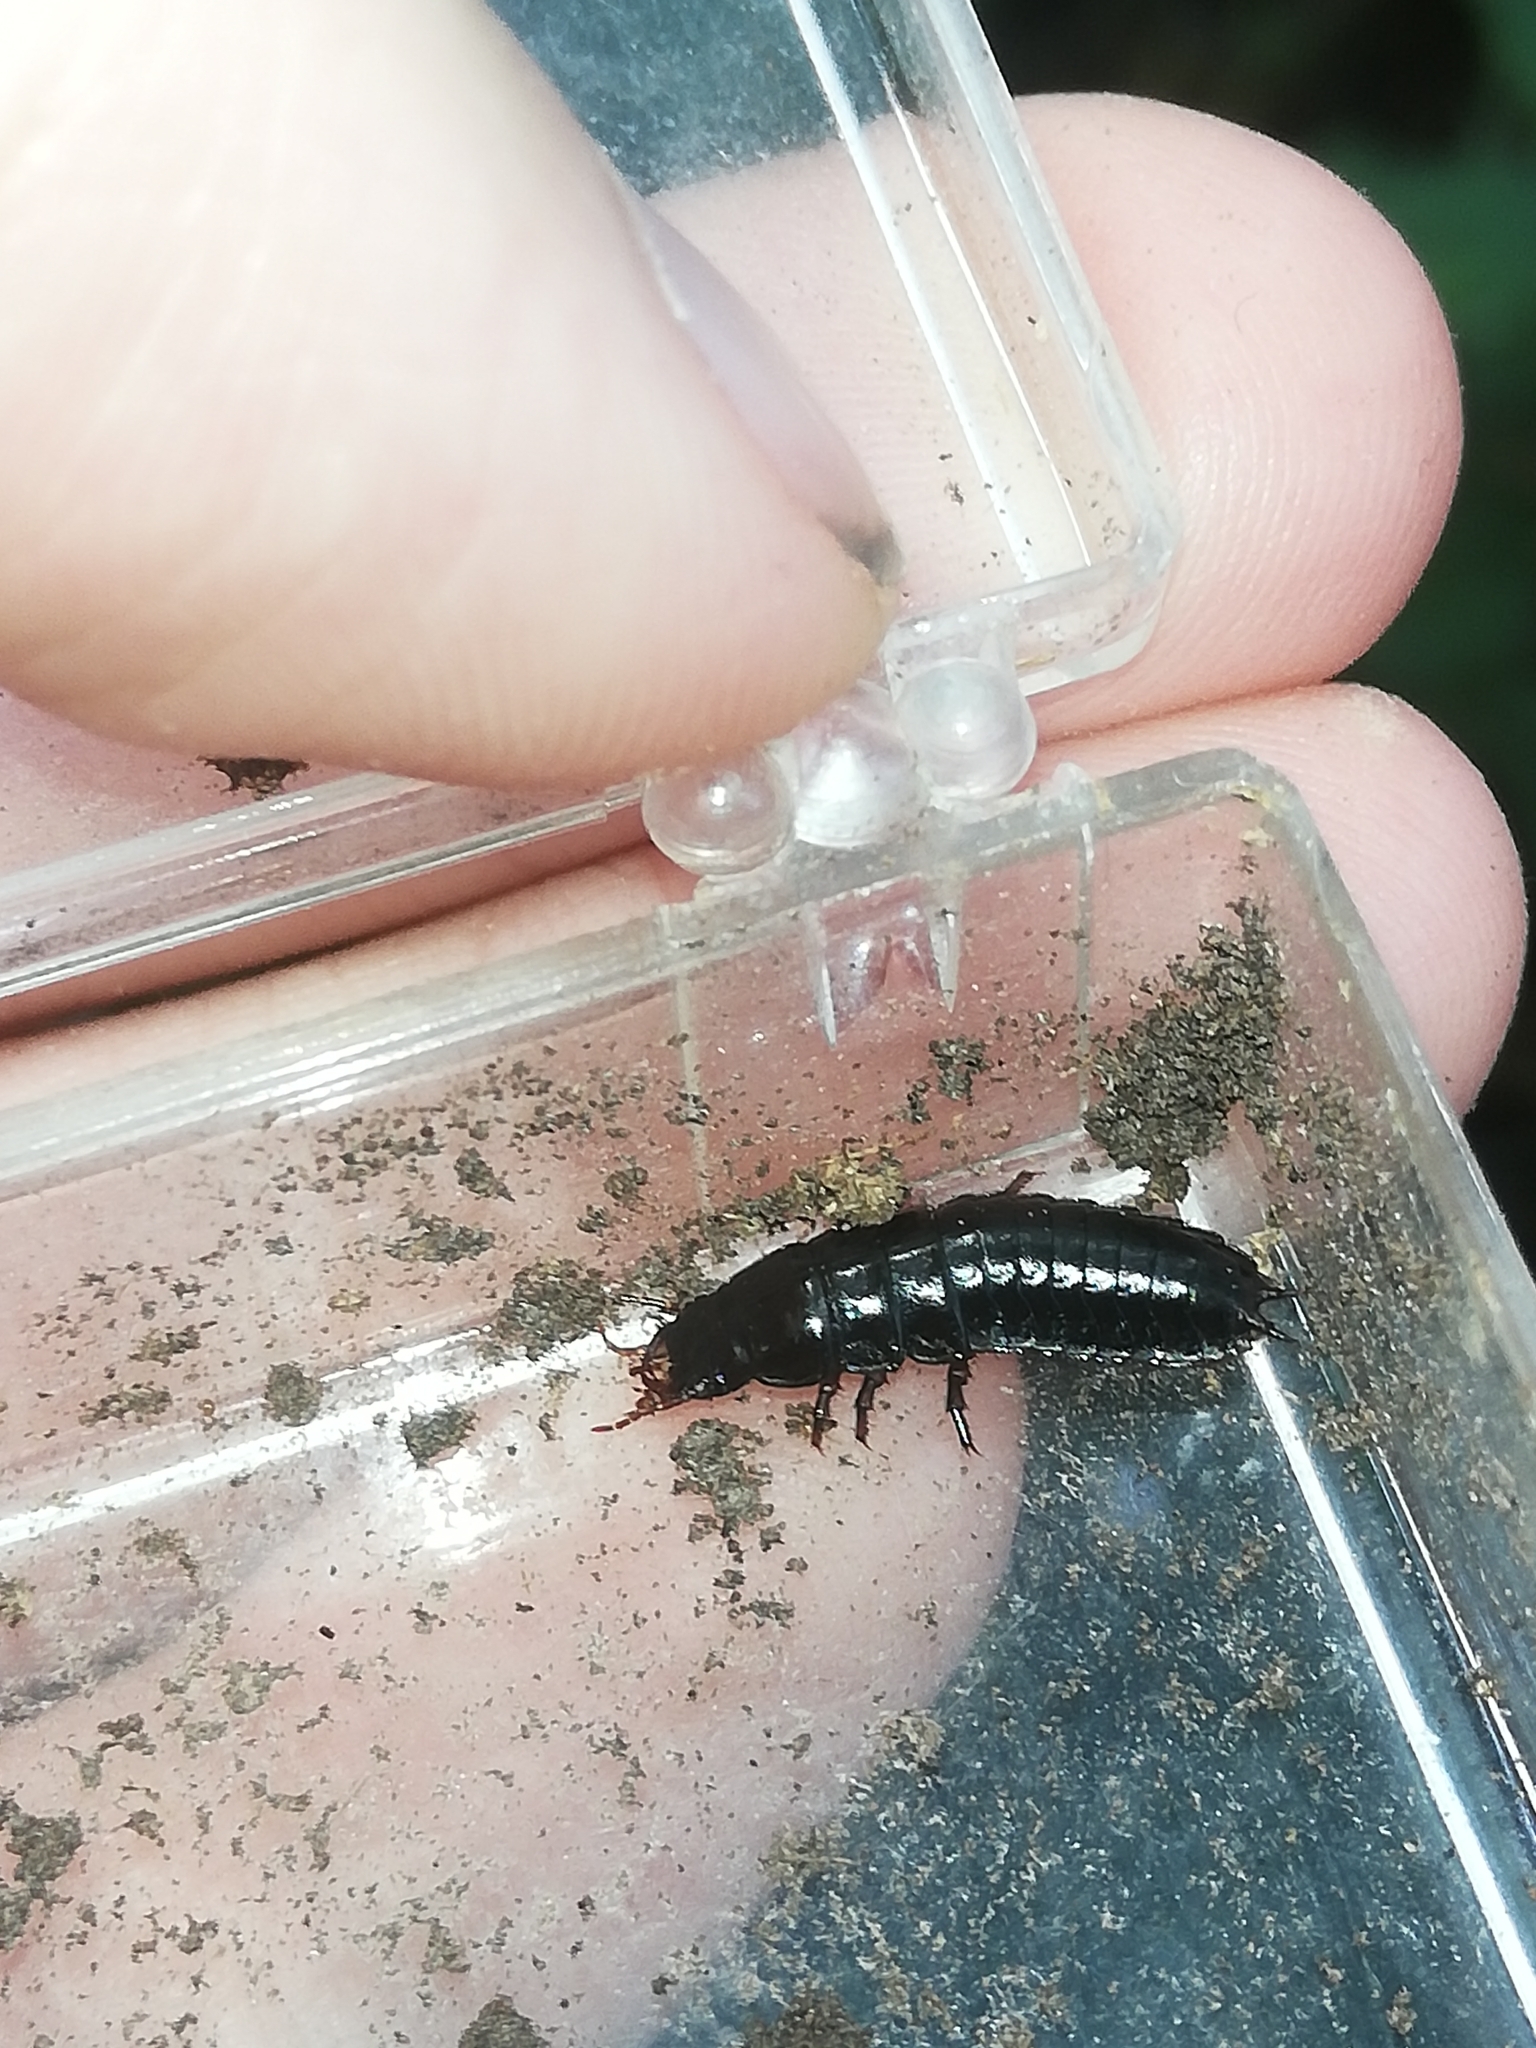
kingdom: Animalia
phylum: Arthropoda
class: Insecta
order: Coleoptera
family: Carabidae
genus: Carabus
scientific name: Carabus
